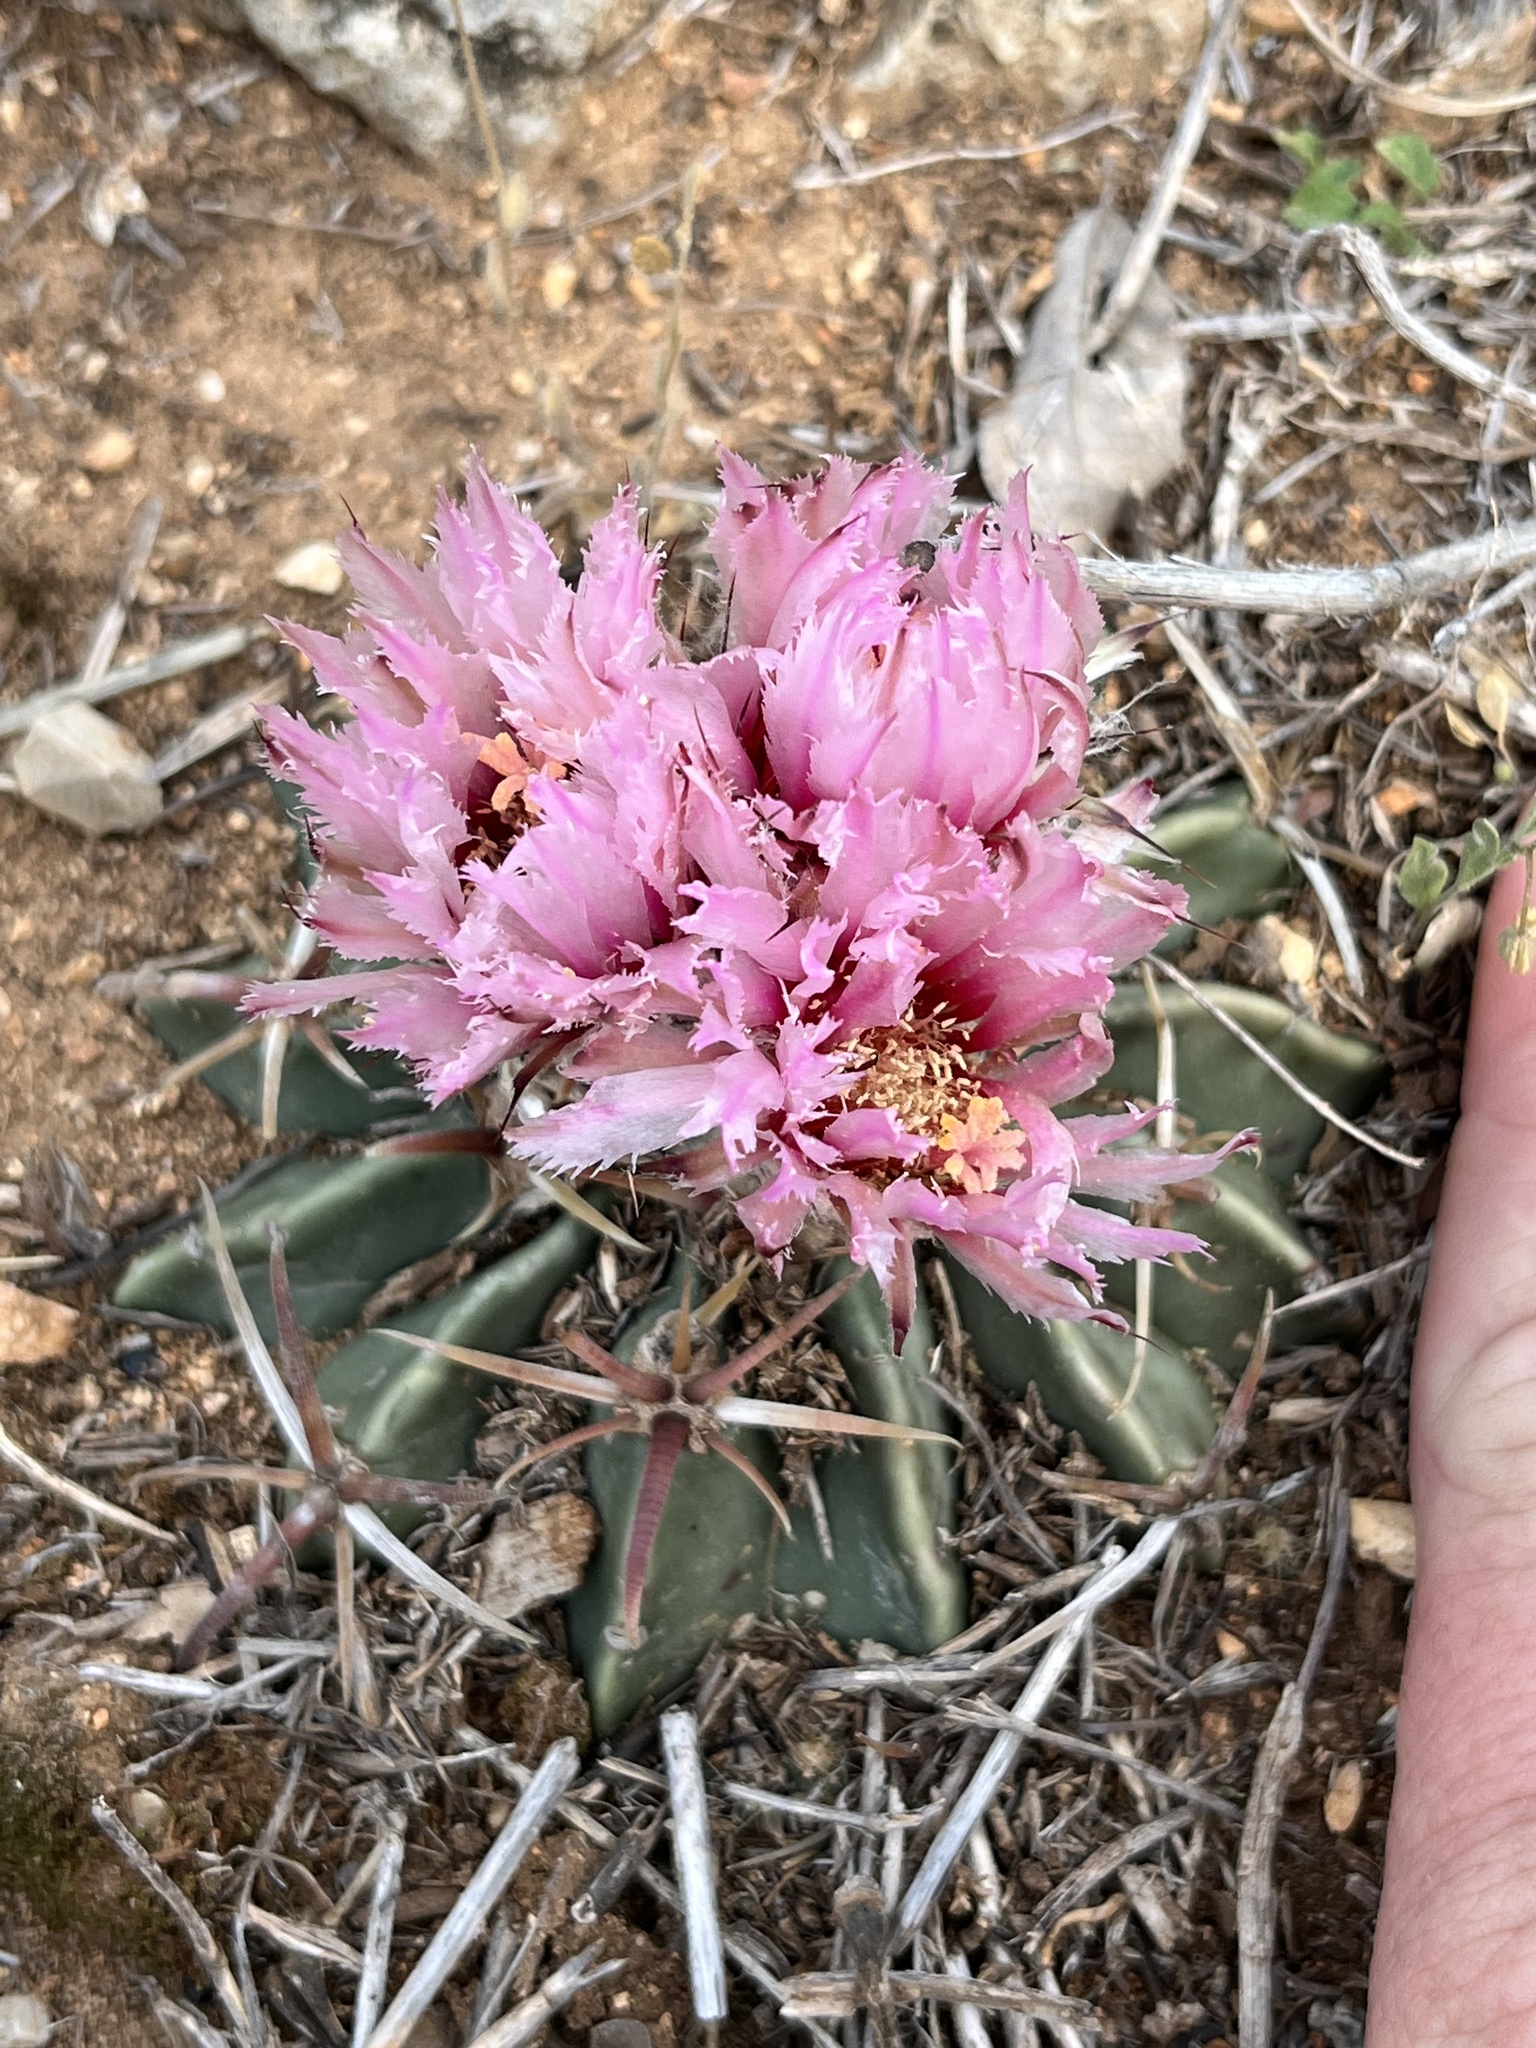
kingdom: Plantae
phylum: Tracheophyta
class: Magnoliopsida
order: Caryophyllales
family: Cactaceae
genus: Echinocactus
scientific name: Echinocactus texensis
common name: Devil's pincushion
